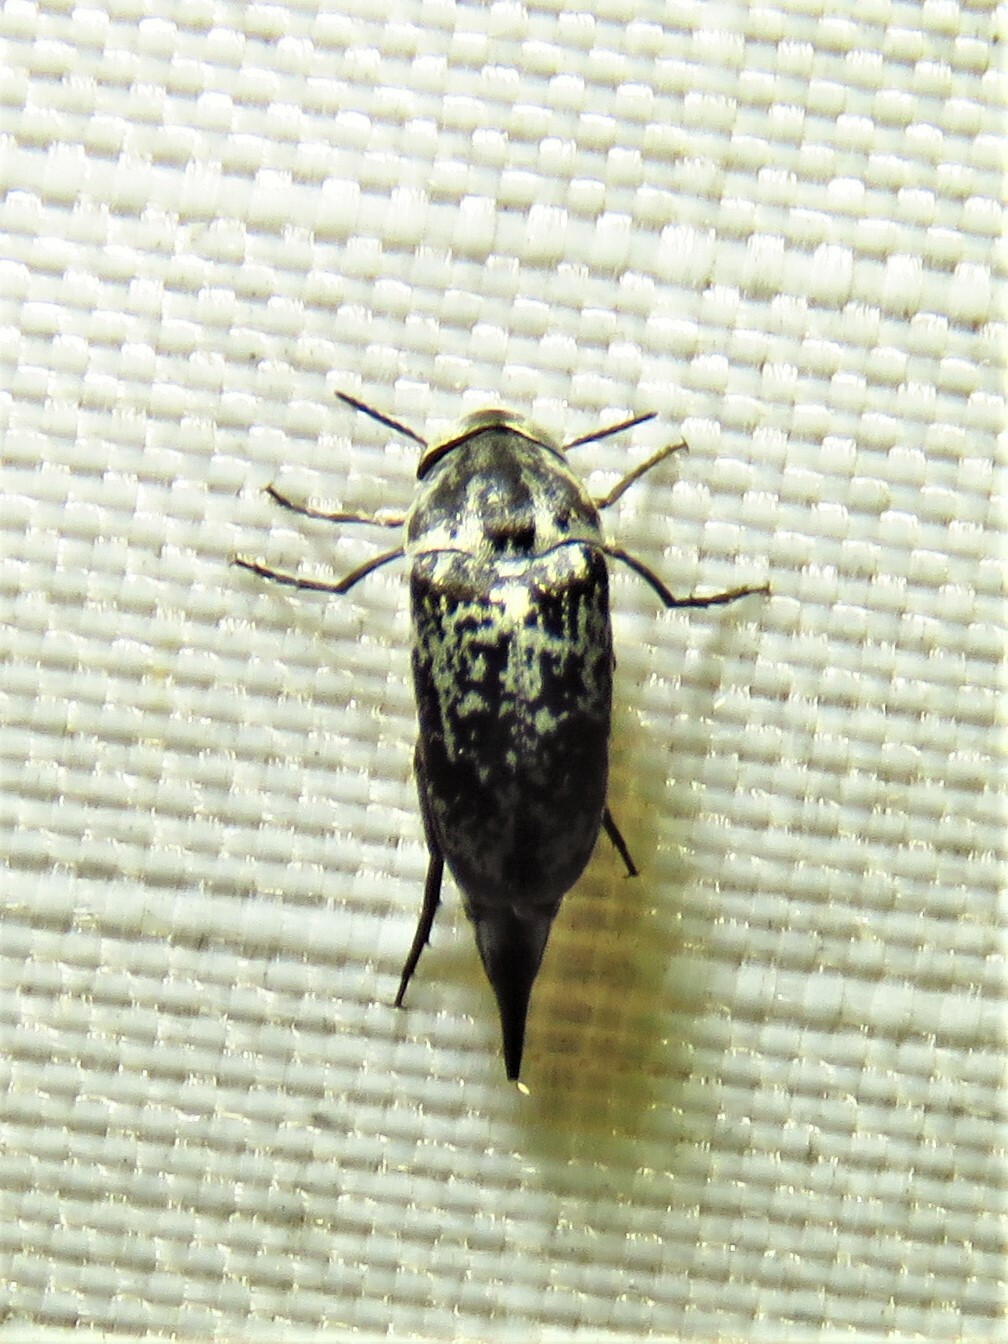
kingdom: Animalia
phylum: Arthropoda
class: Insecta
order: Coleoptera
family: Mordellidae
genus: Mordella
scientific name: Mordella marginata
